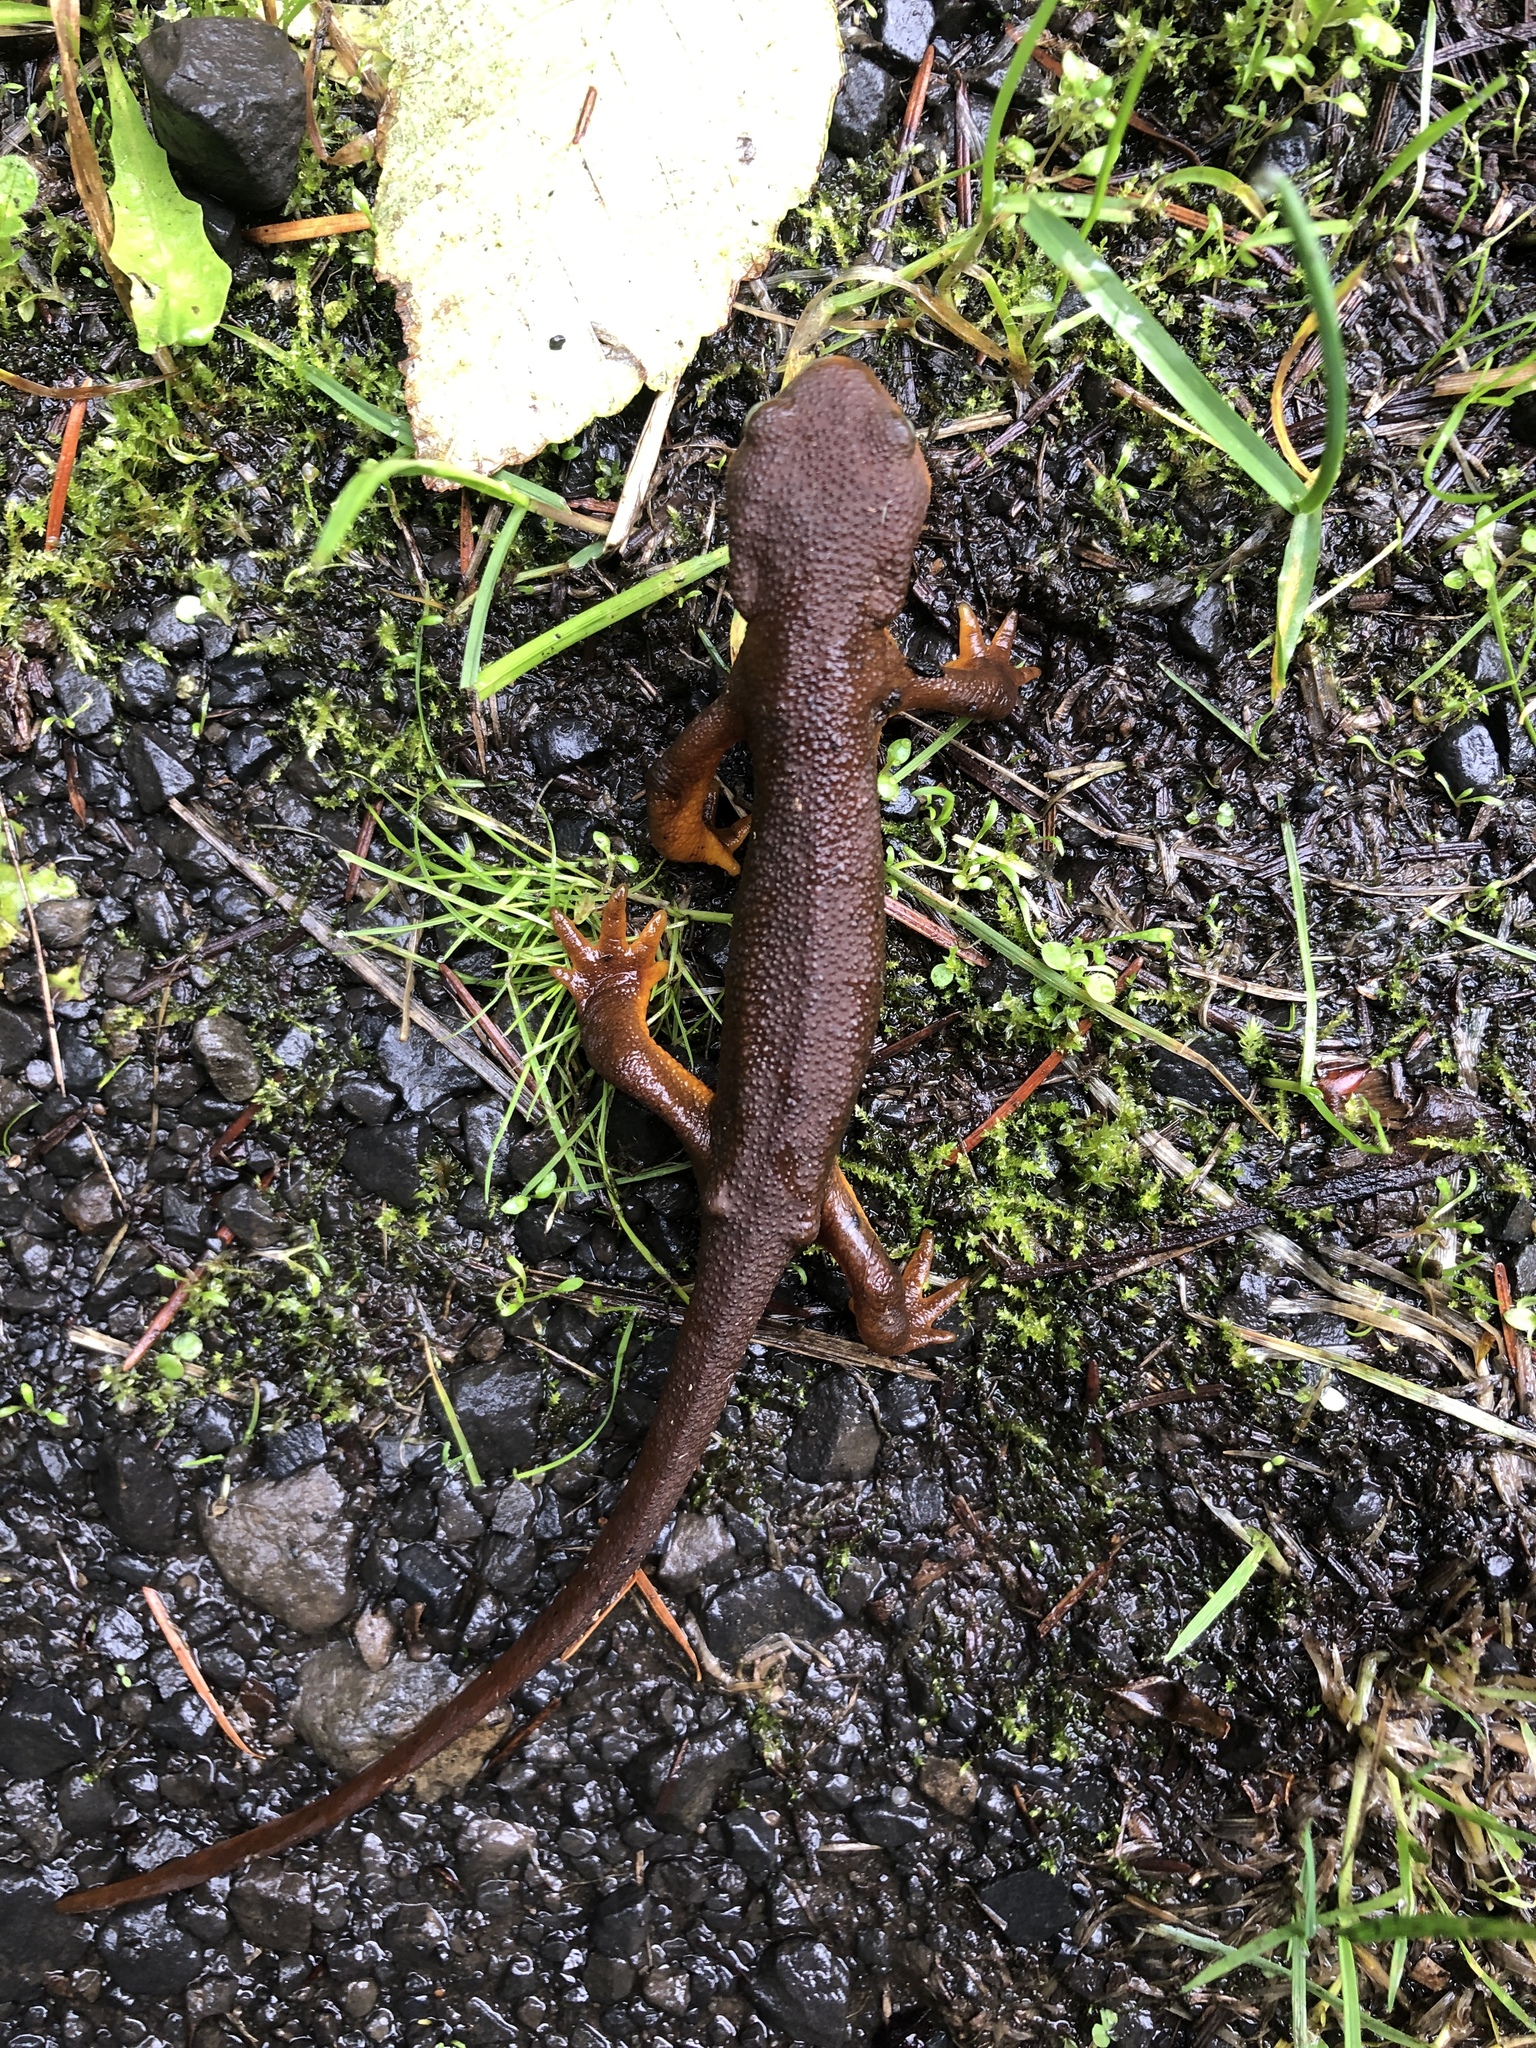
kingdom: Animalia
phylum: Chordata
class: Amphibia
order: Caudata
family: Salamandridae
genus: Taricha
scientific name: Taricha granulosa
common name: Roughskin newt
